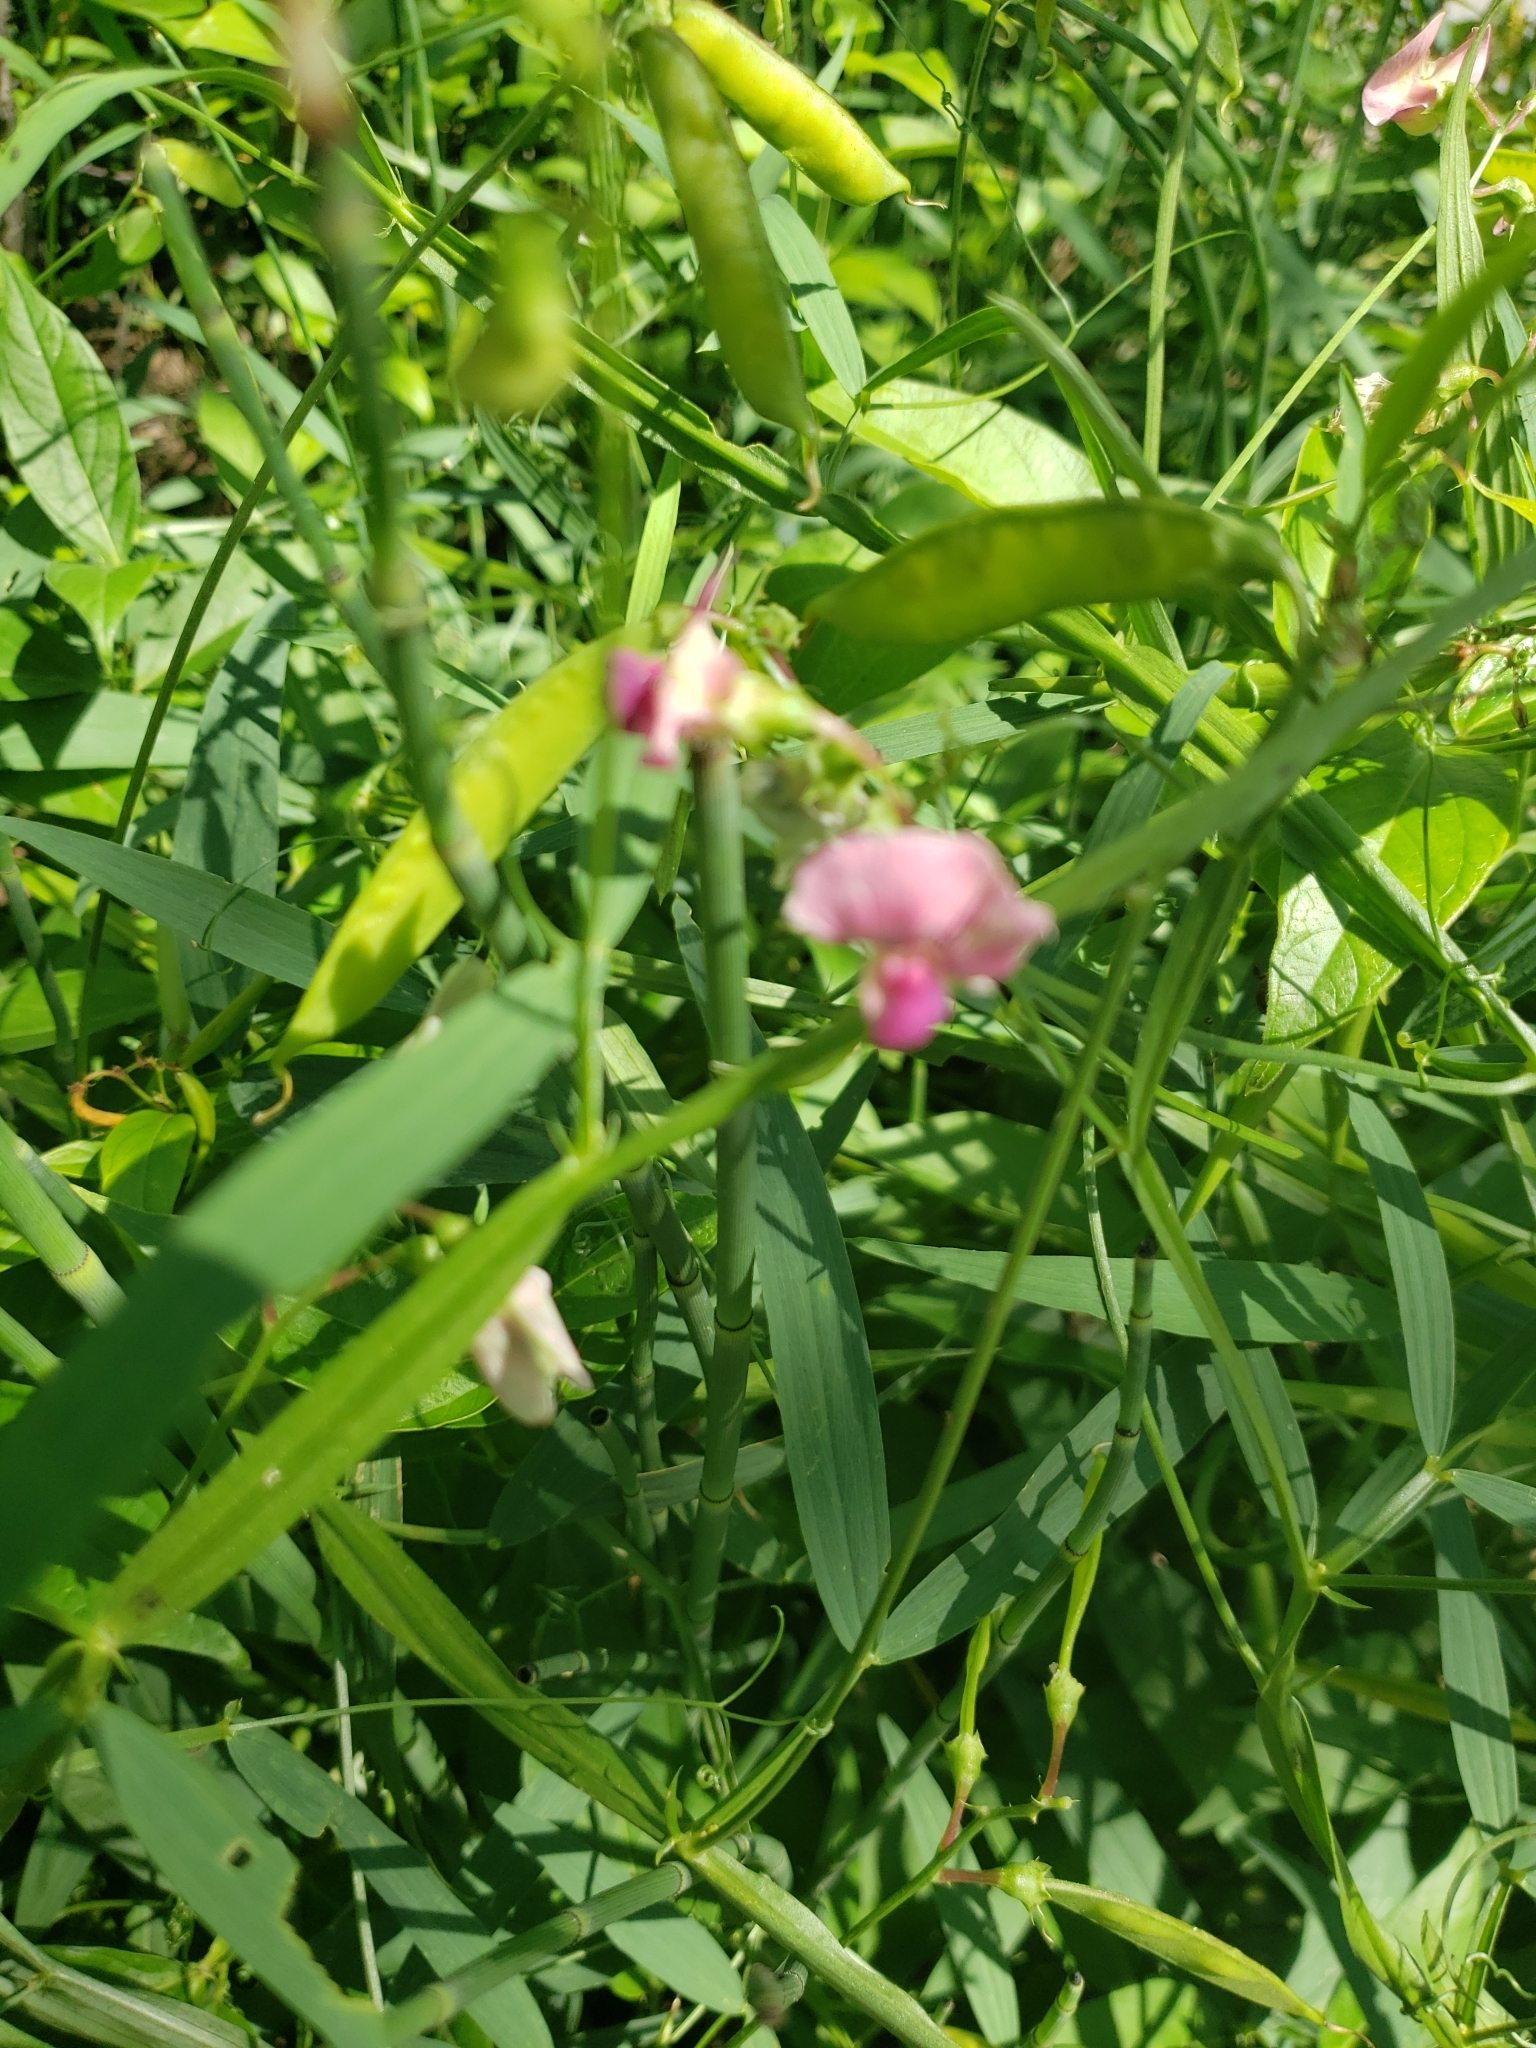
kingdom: Plantae
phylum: Tracheophyta
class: Magnoliopsida
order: Fabales
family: Fabaceae
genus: Lathyrus
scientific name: Lathyrus sylvestris
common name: Flat pea
